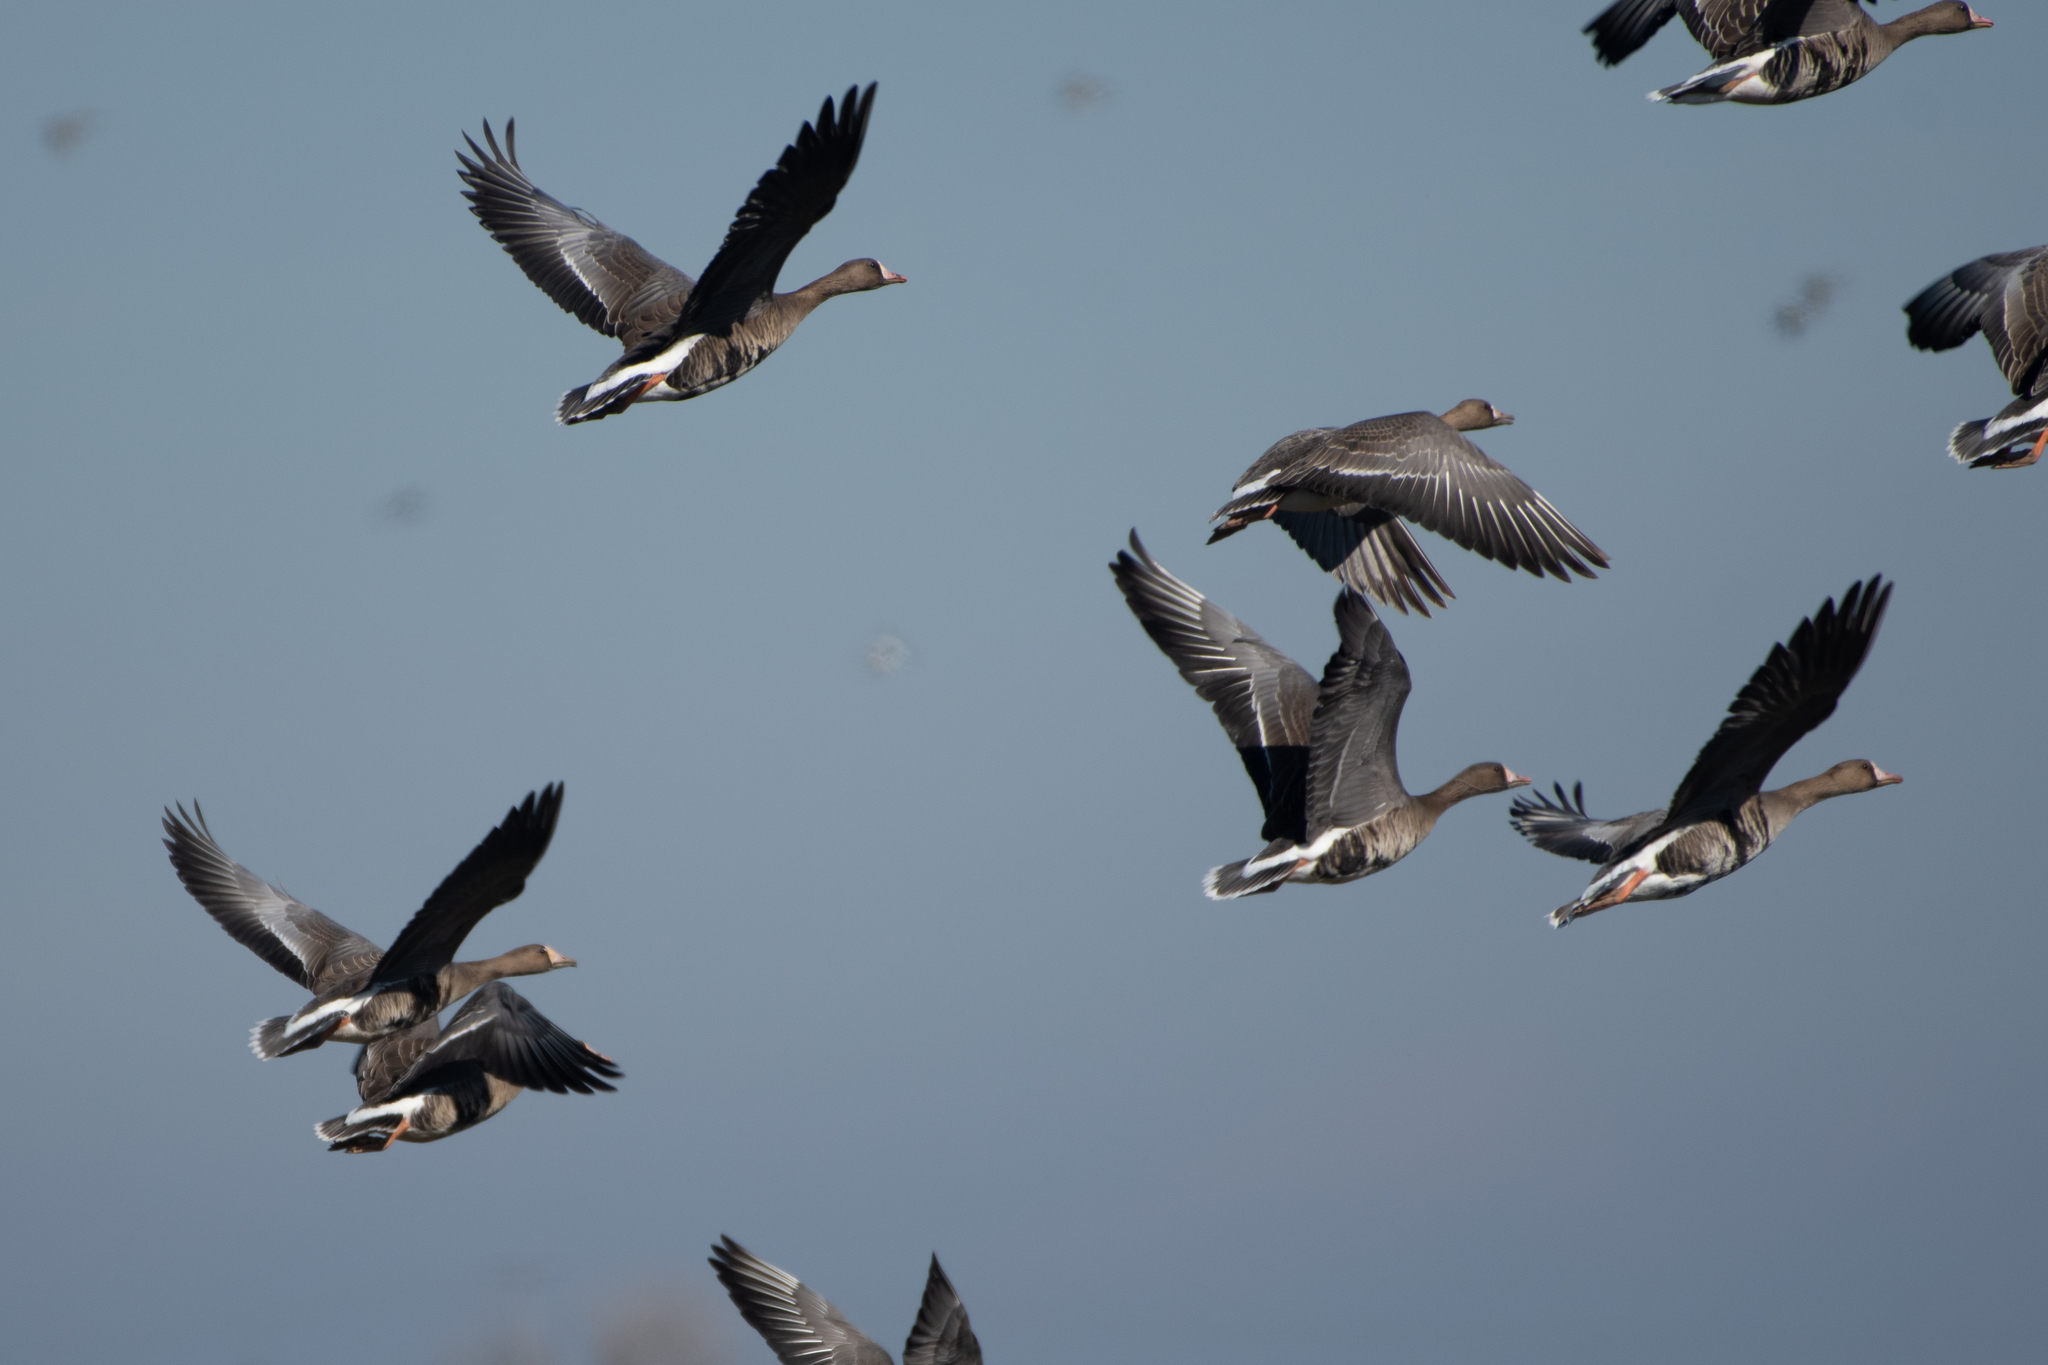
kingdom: Animalia
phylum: Chordata
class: Aves
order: Anseriformes
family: Anatidae
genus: Anser
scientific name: Anser albifrons
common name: Greater white-fronted goose
